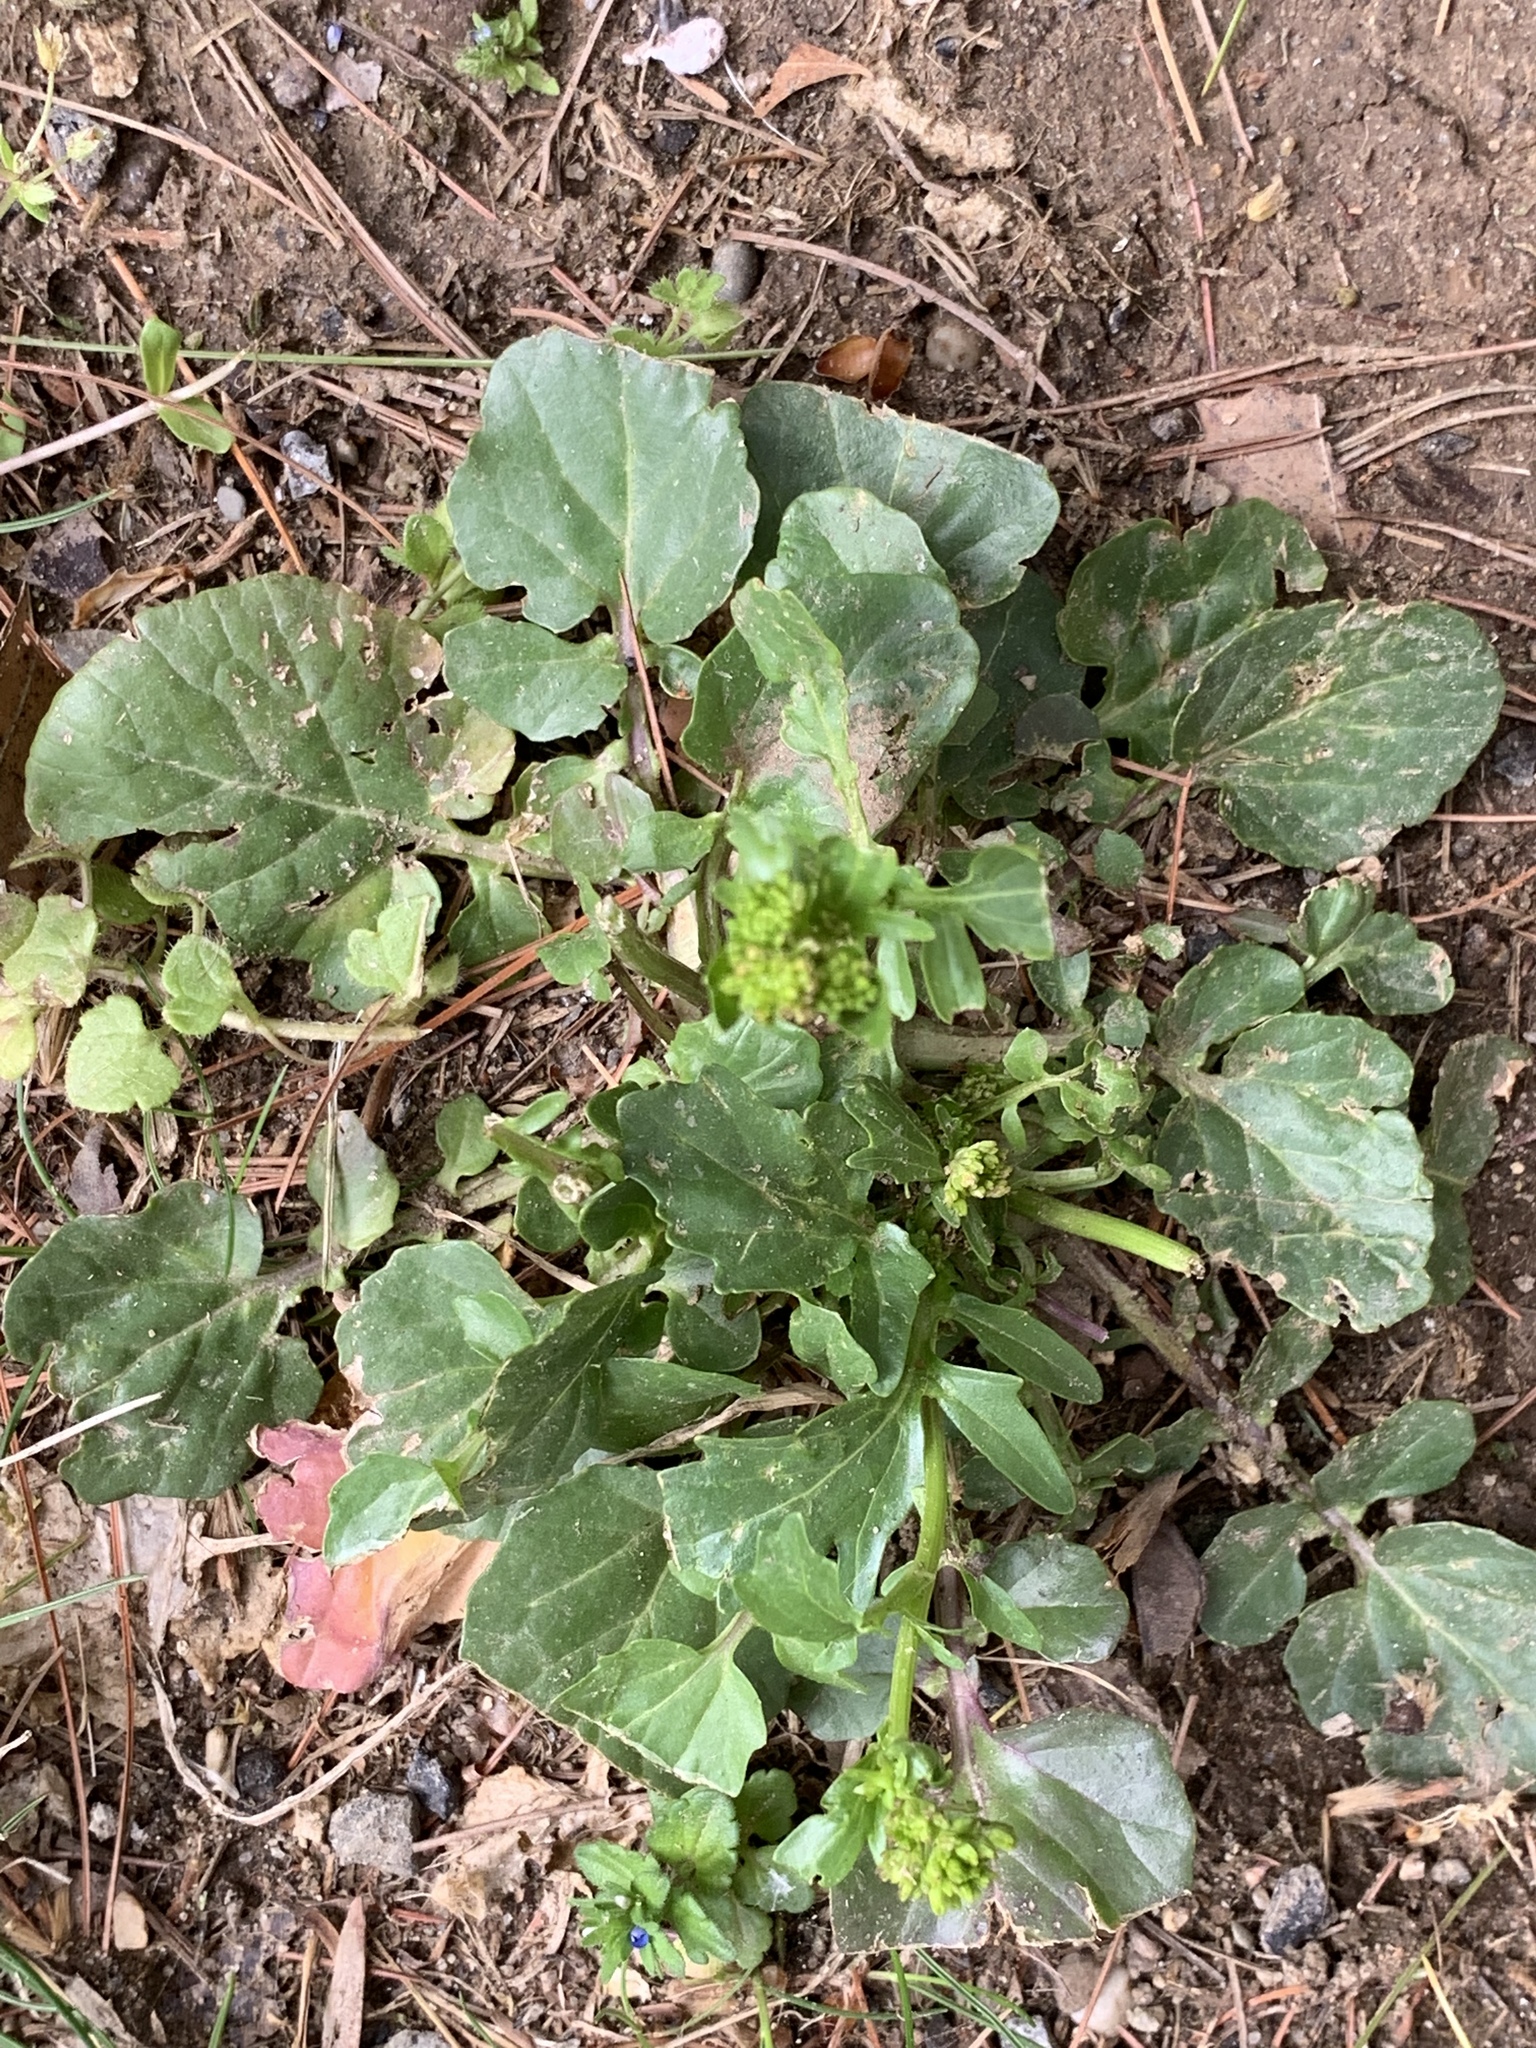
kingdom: Plantae
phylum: Tracheophyta
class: Magnoliopsida
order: Brassicales
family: Brassicaceae
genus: Barbarea
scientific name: Barbarea vulgaris
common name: Cressy-greens
